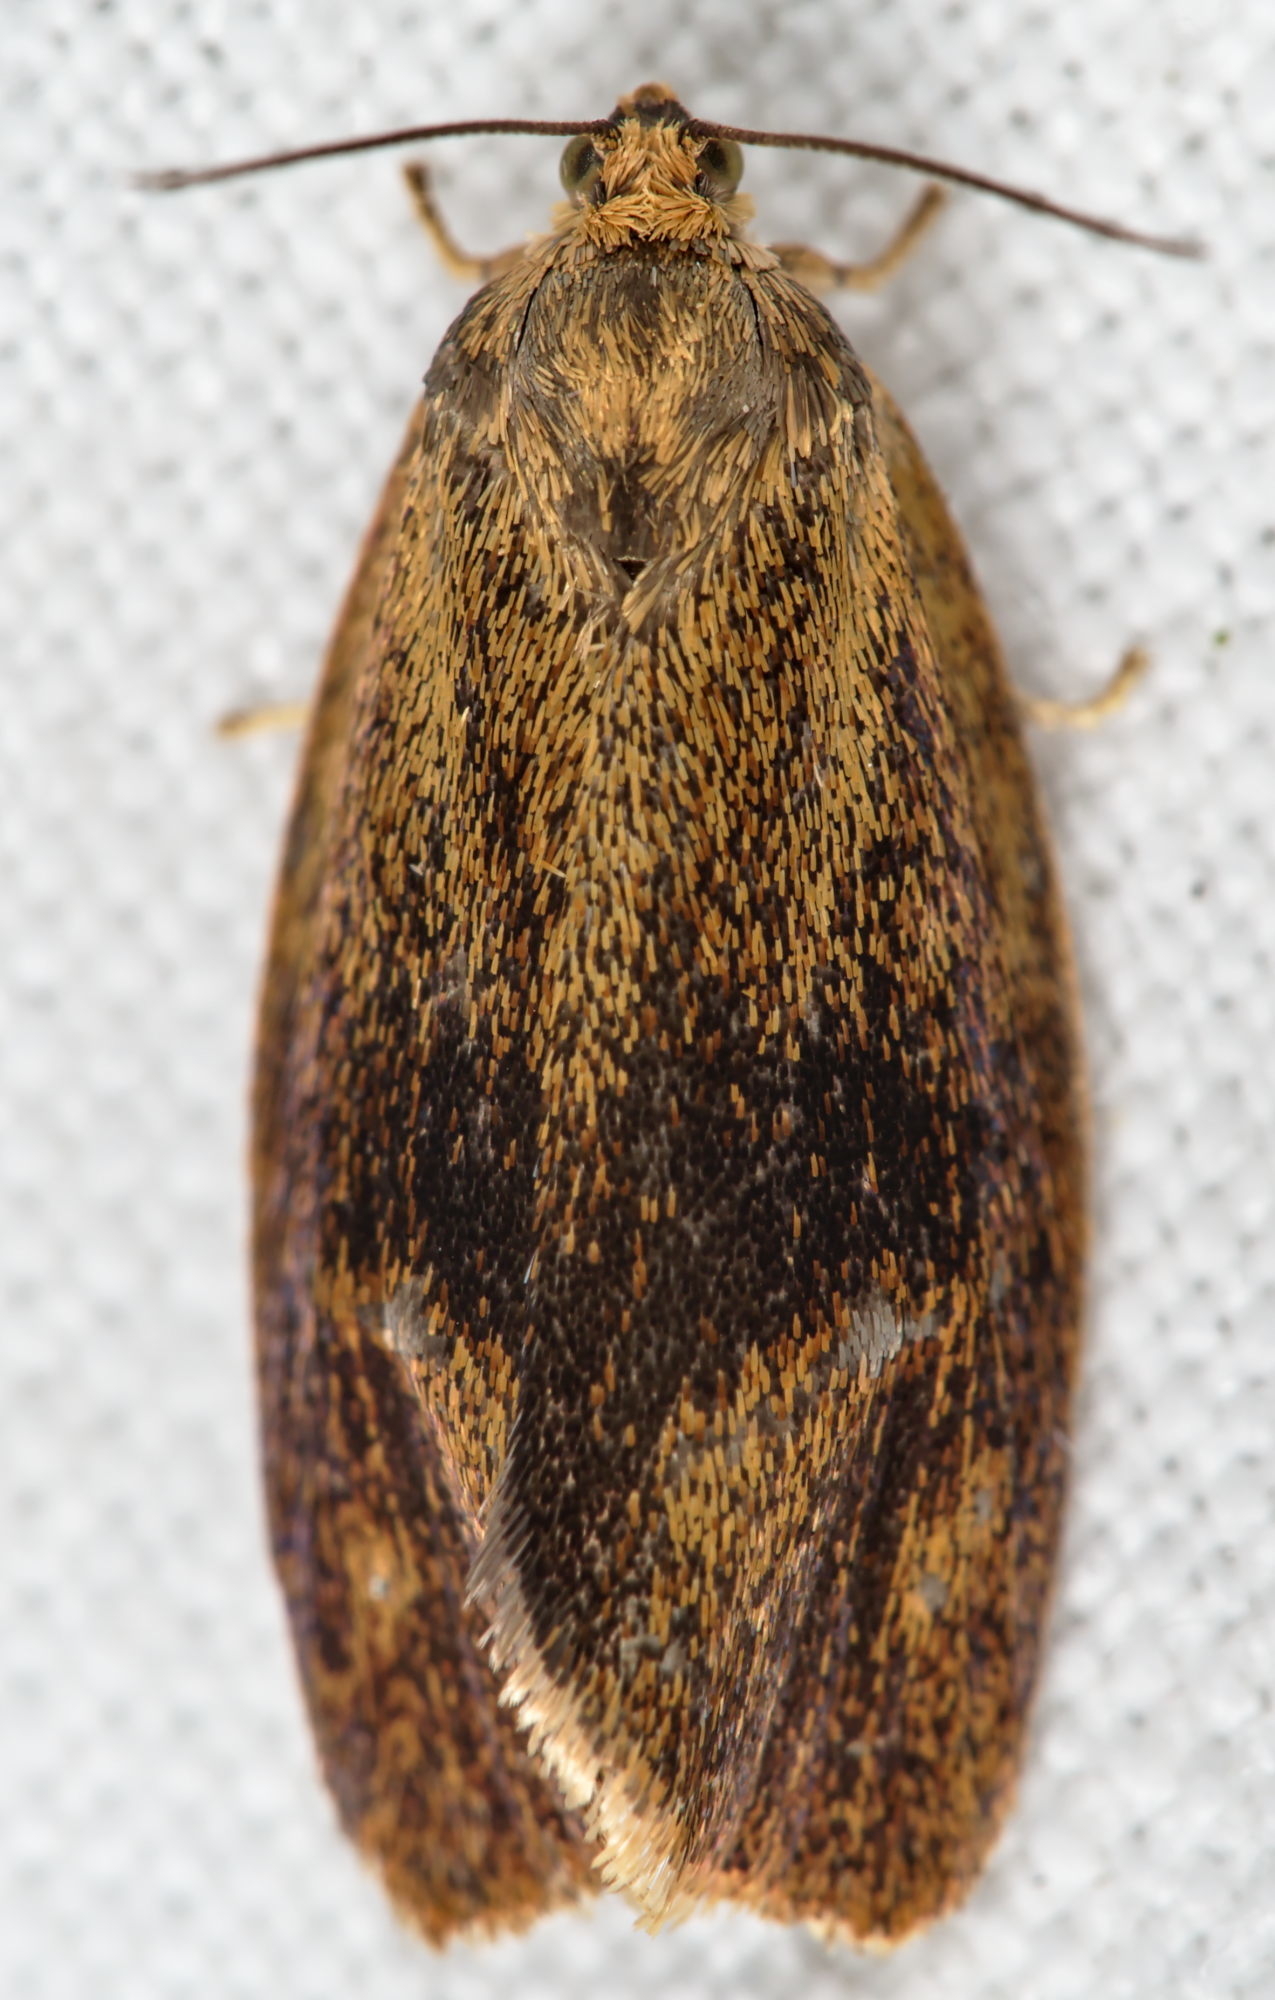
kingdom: Animalia
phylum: Arthropoda
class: Insecta
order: Lepidoptera
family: Tortricidae
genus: Ptycholoma
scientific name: Ptycholoma lecheana
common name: Leches twist moth
